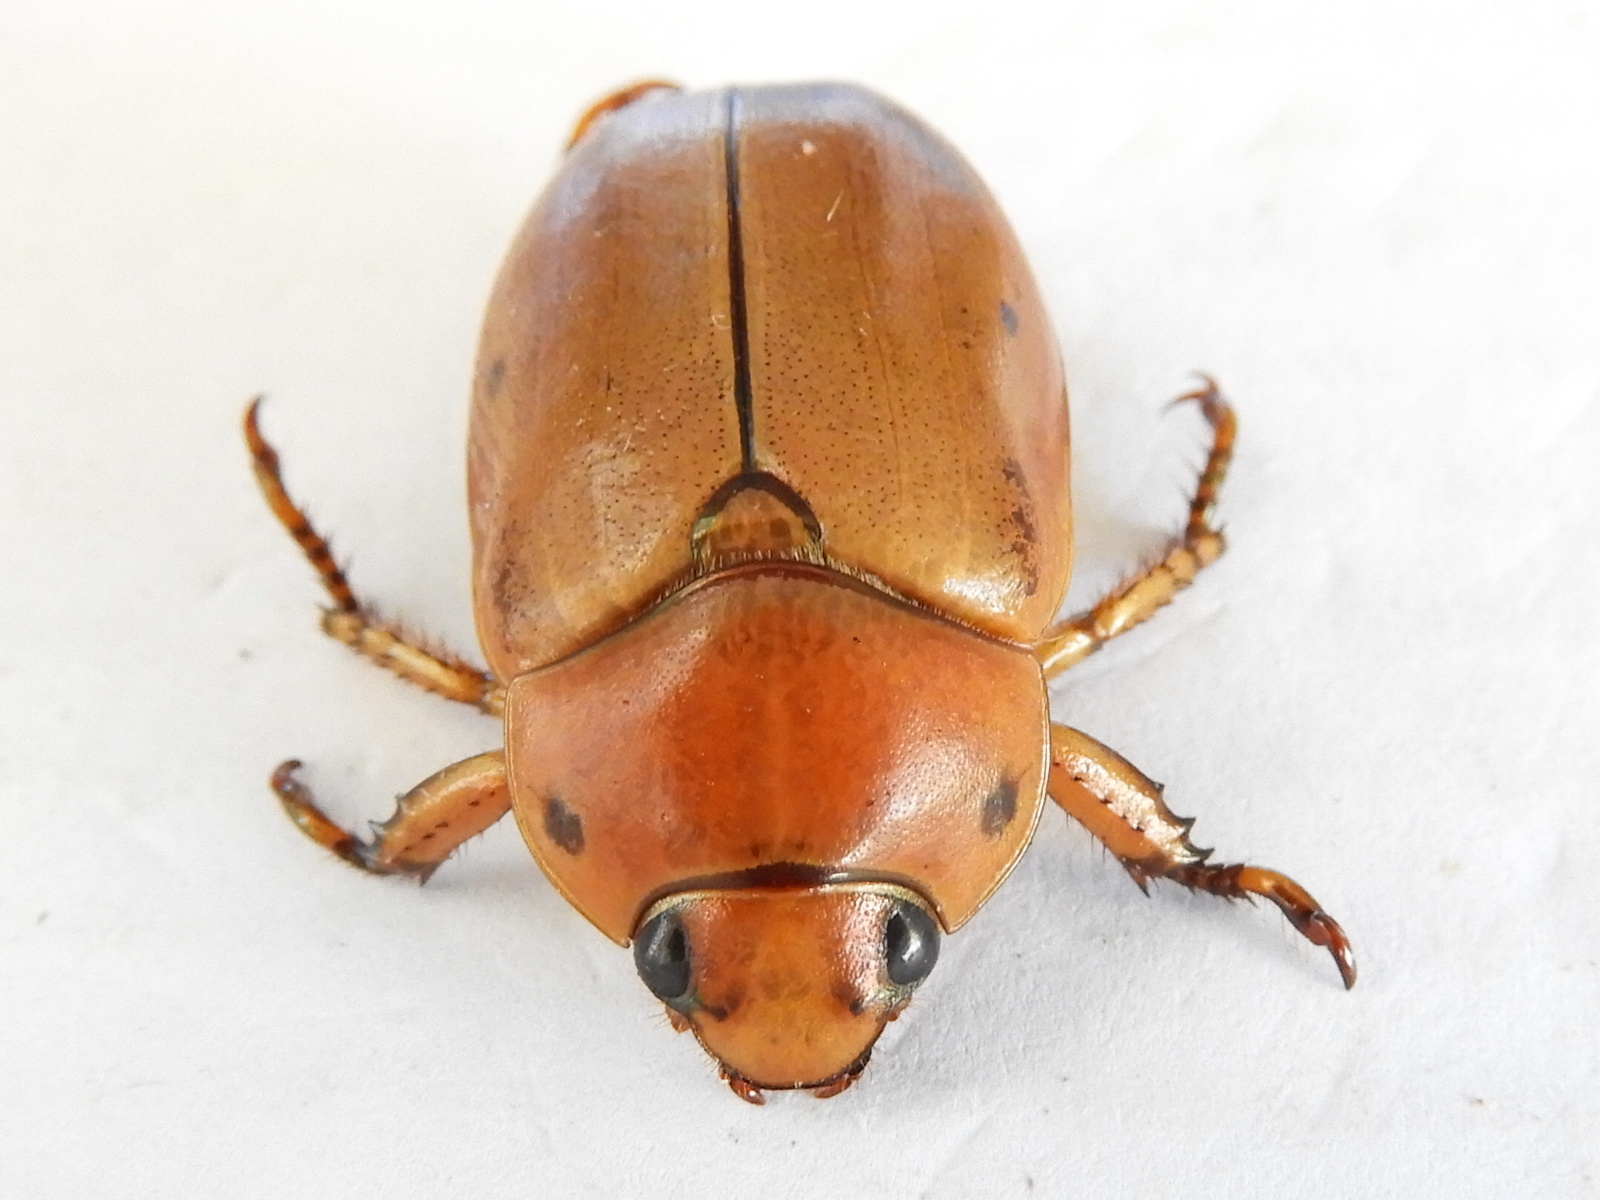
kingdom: Animalia
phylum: Arthropoda
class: Insecta
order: Coleoptera
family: Scarabaeidae
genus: Pelidnota
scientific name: Pelidnota punctata
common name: Grapevine beetle
